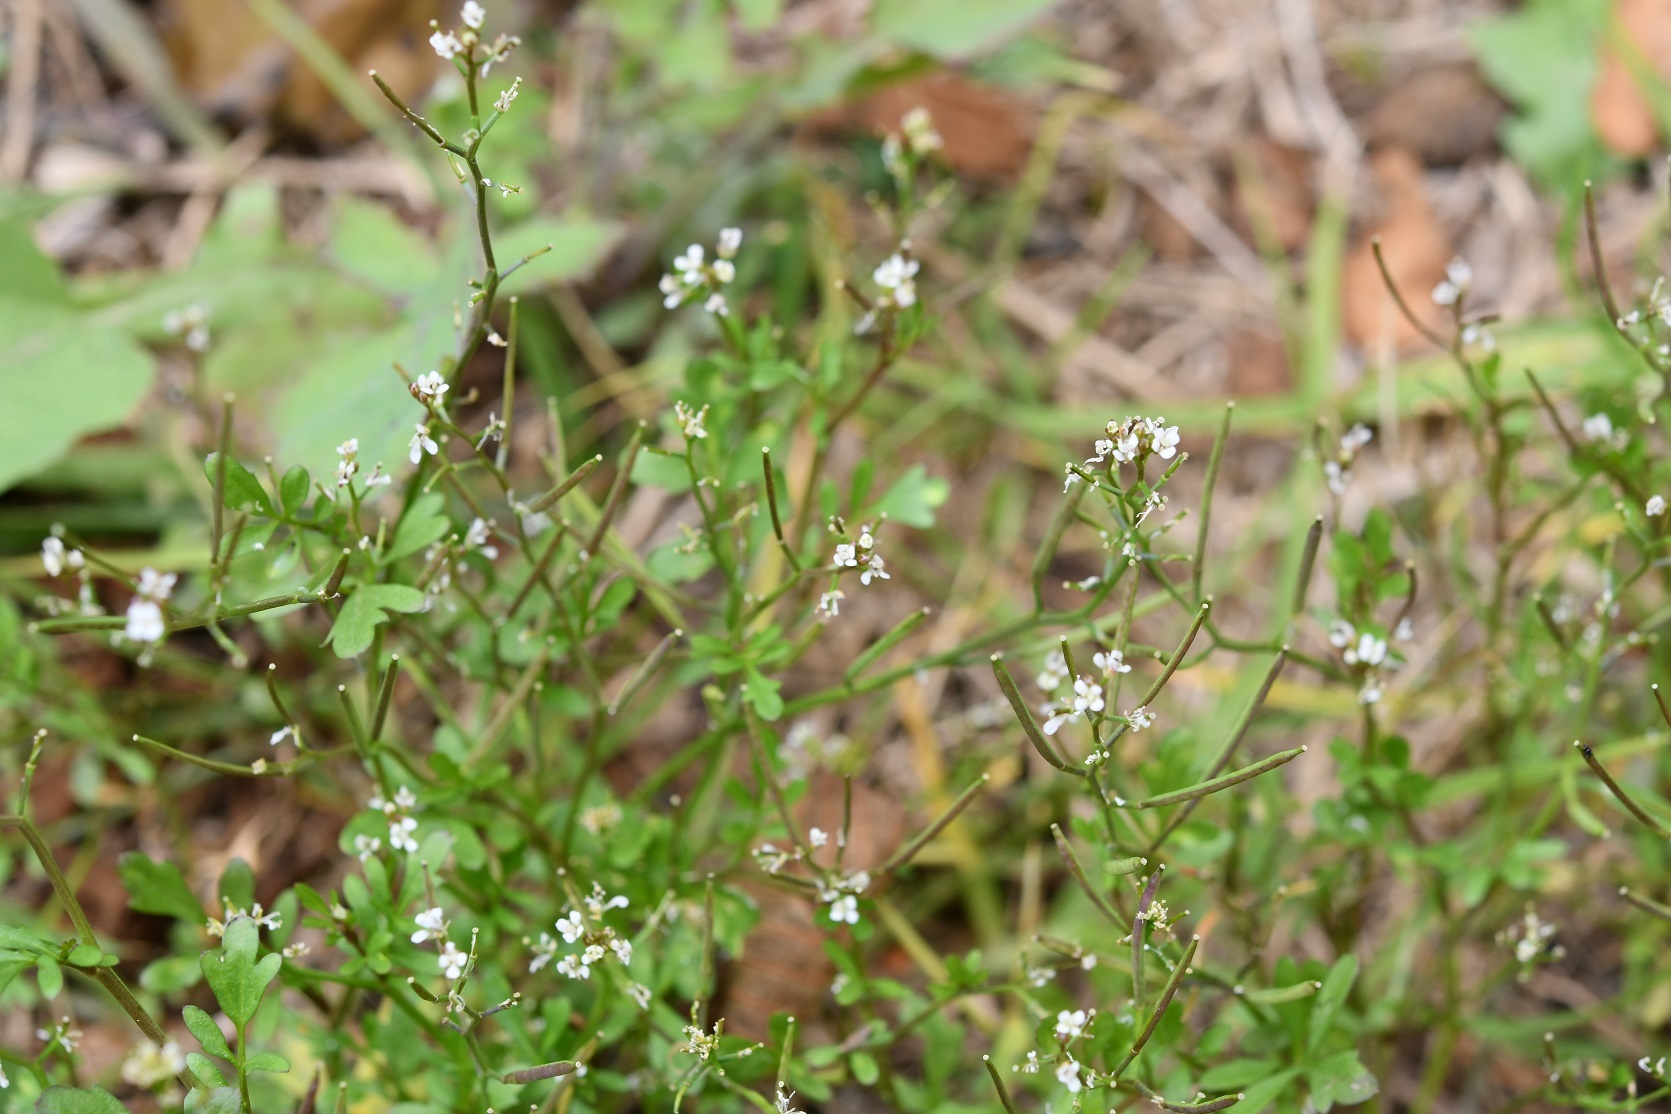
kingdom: Plantae
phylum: Tracheophyta
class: Magnoliopsida
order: Brassicales
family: Brassicaceae
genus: Cardamine
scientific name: Cardamine occulta
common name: Asian wavy bittercress
